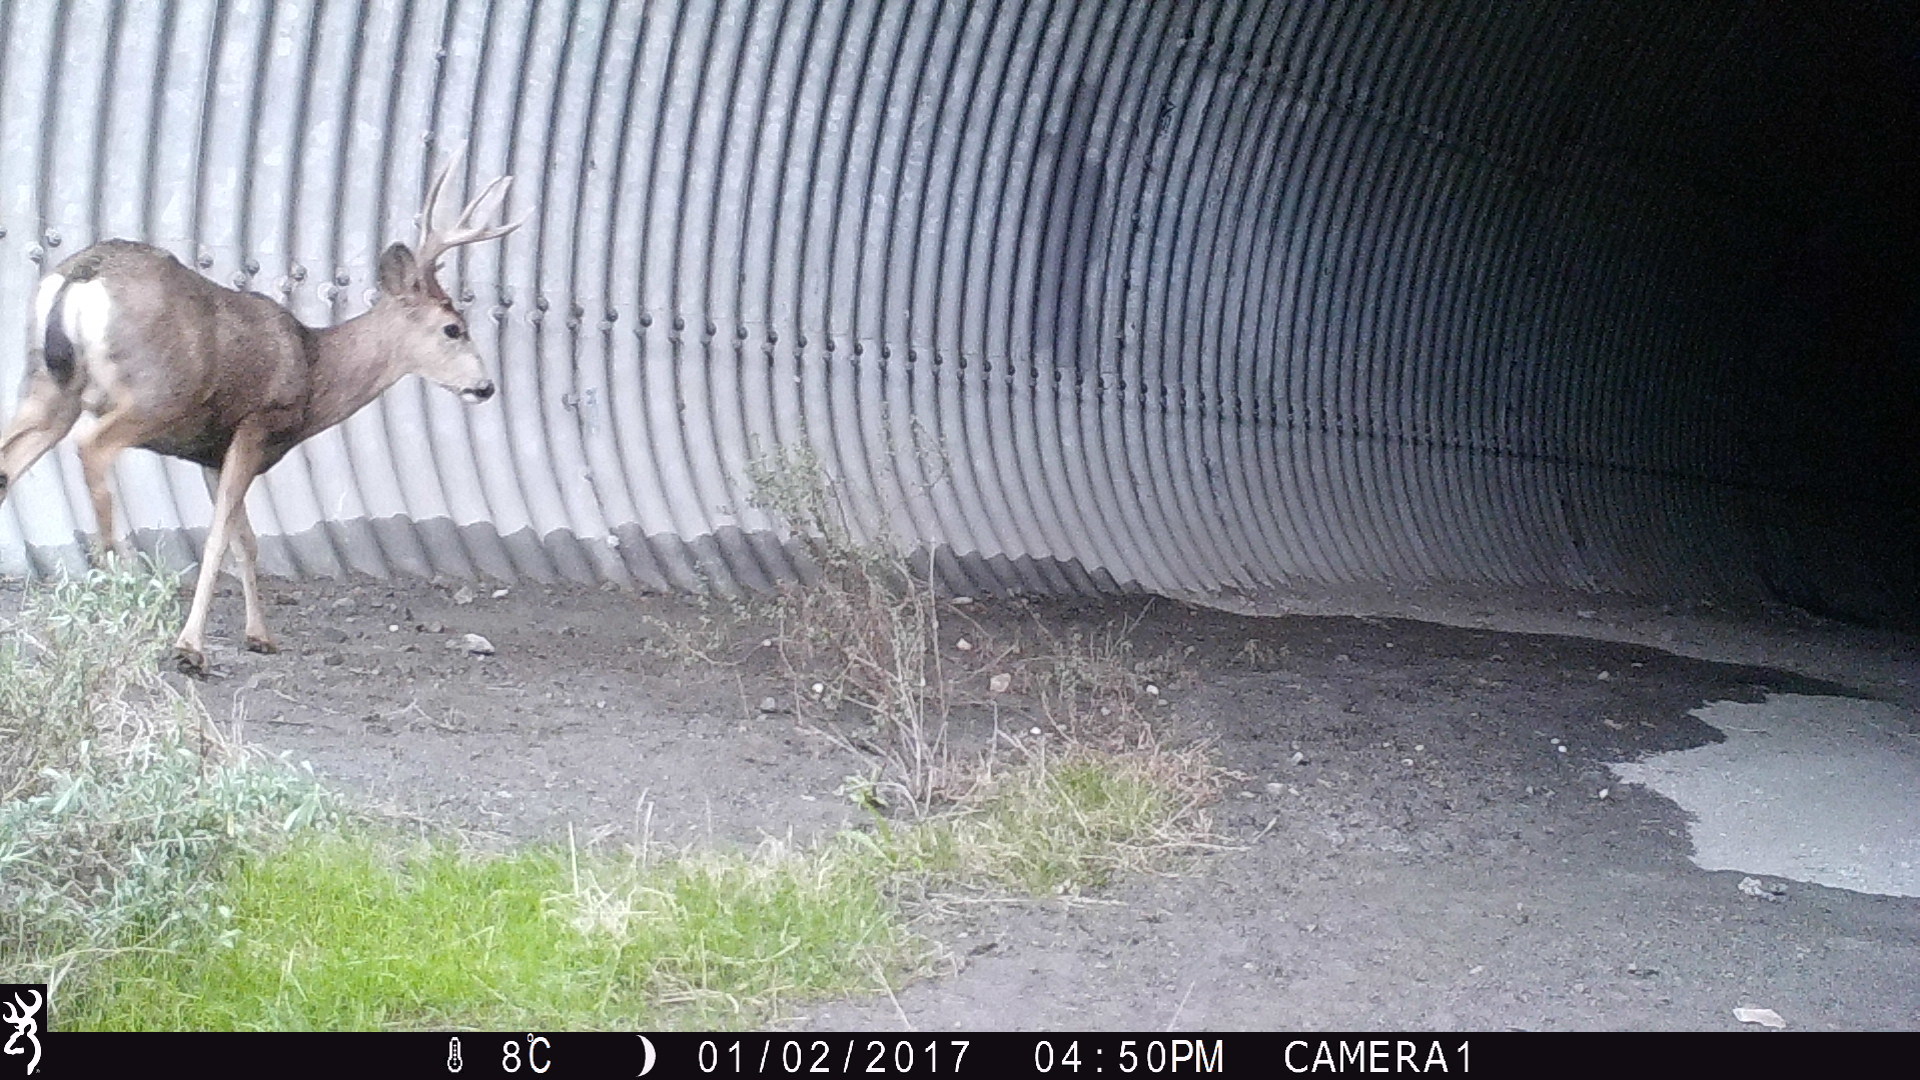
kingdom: Animalia
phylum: Chordata
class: Mammalia
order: Artiodactyla
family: Cervidae
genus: Odocoileus
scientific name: Odocoileus hemionus
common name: Mule deer
